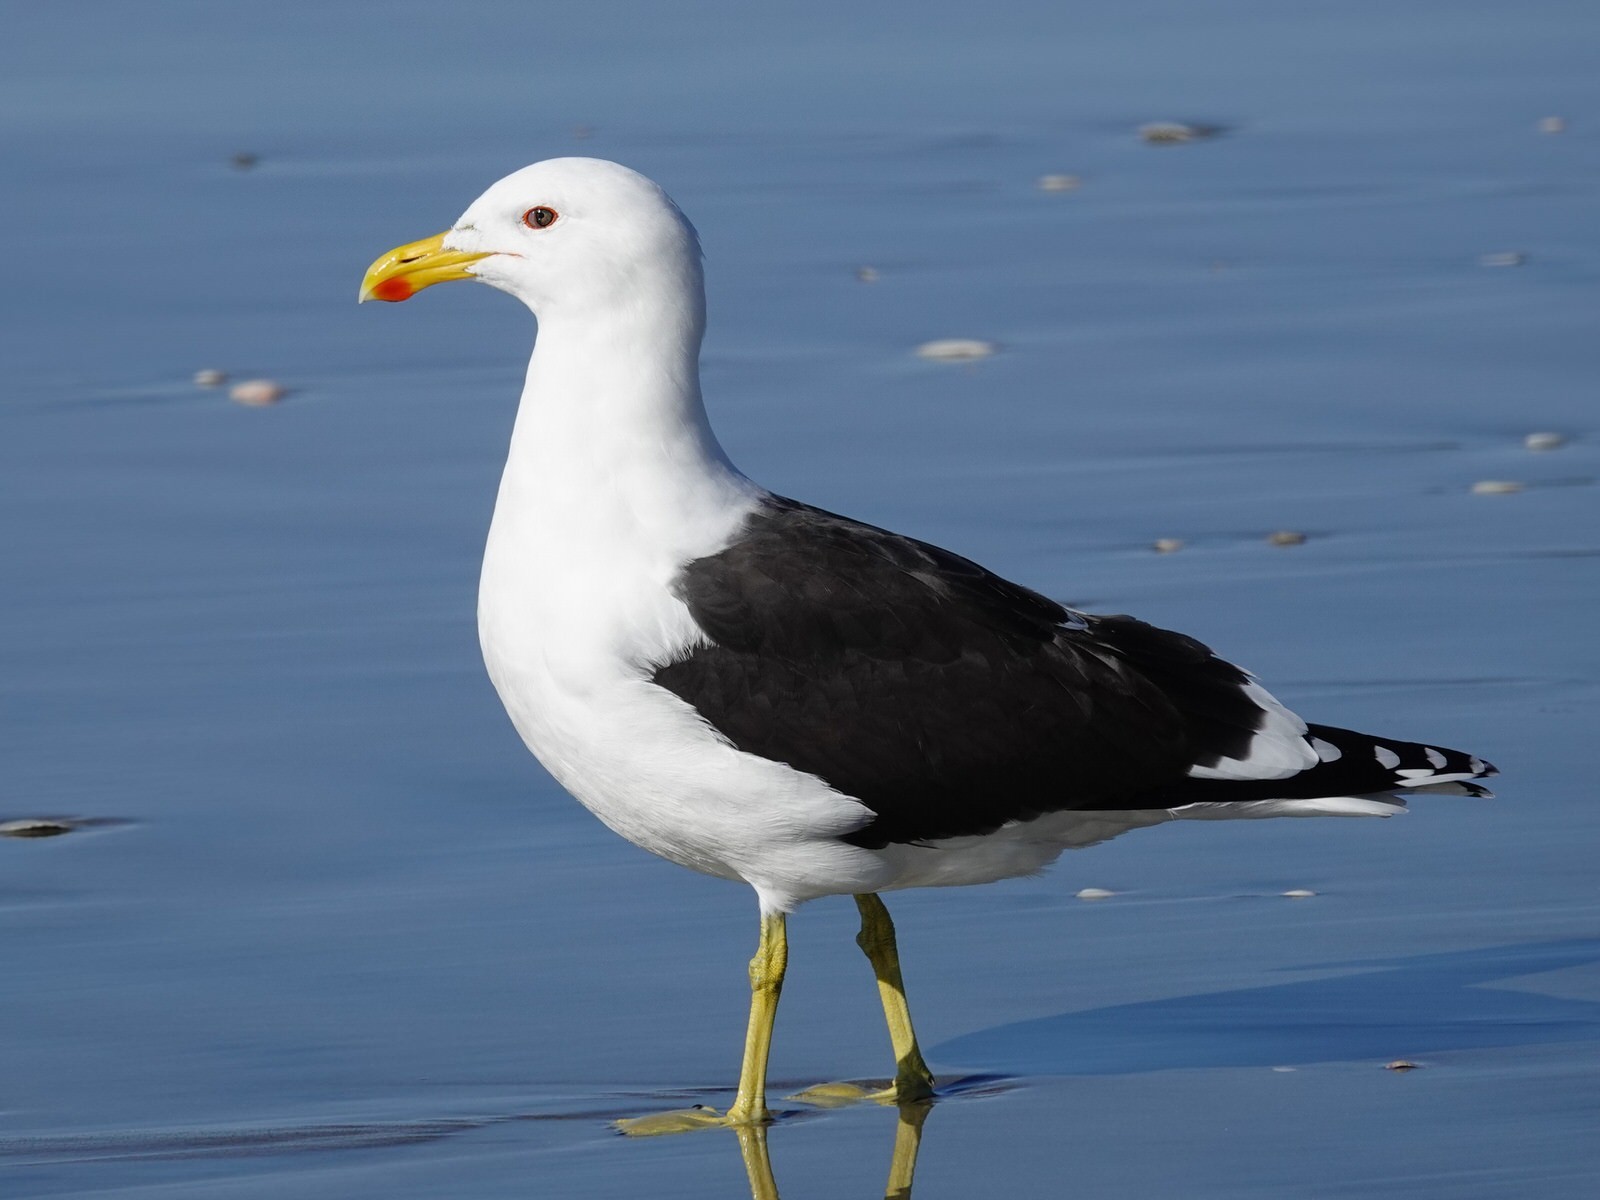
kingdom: Animalia
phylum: Chordata
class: Aves
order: Charadriiformes
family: Laridae
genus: Larus
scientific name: Larus dominicanus
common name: Kelp gull
